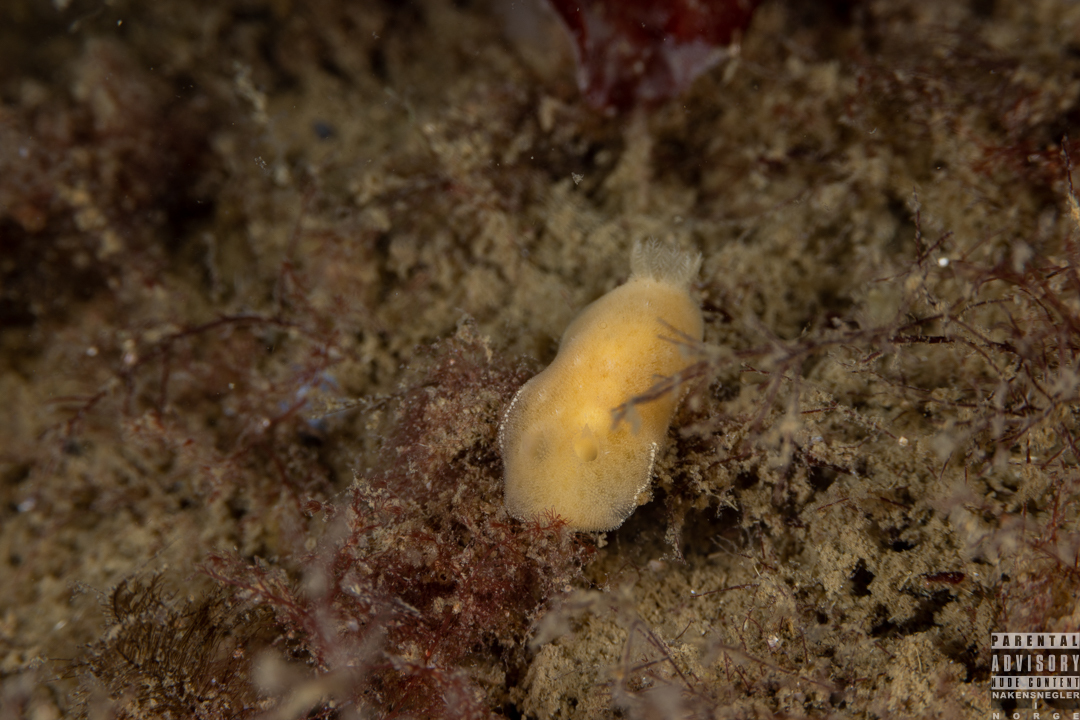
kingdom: Animalia
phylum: Mollusca
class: Gastropoda
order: Nudibranchia
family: Discodorididae
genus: Jorunna
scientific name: Jorunna tomentosa
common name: Grey sea slug
